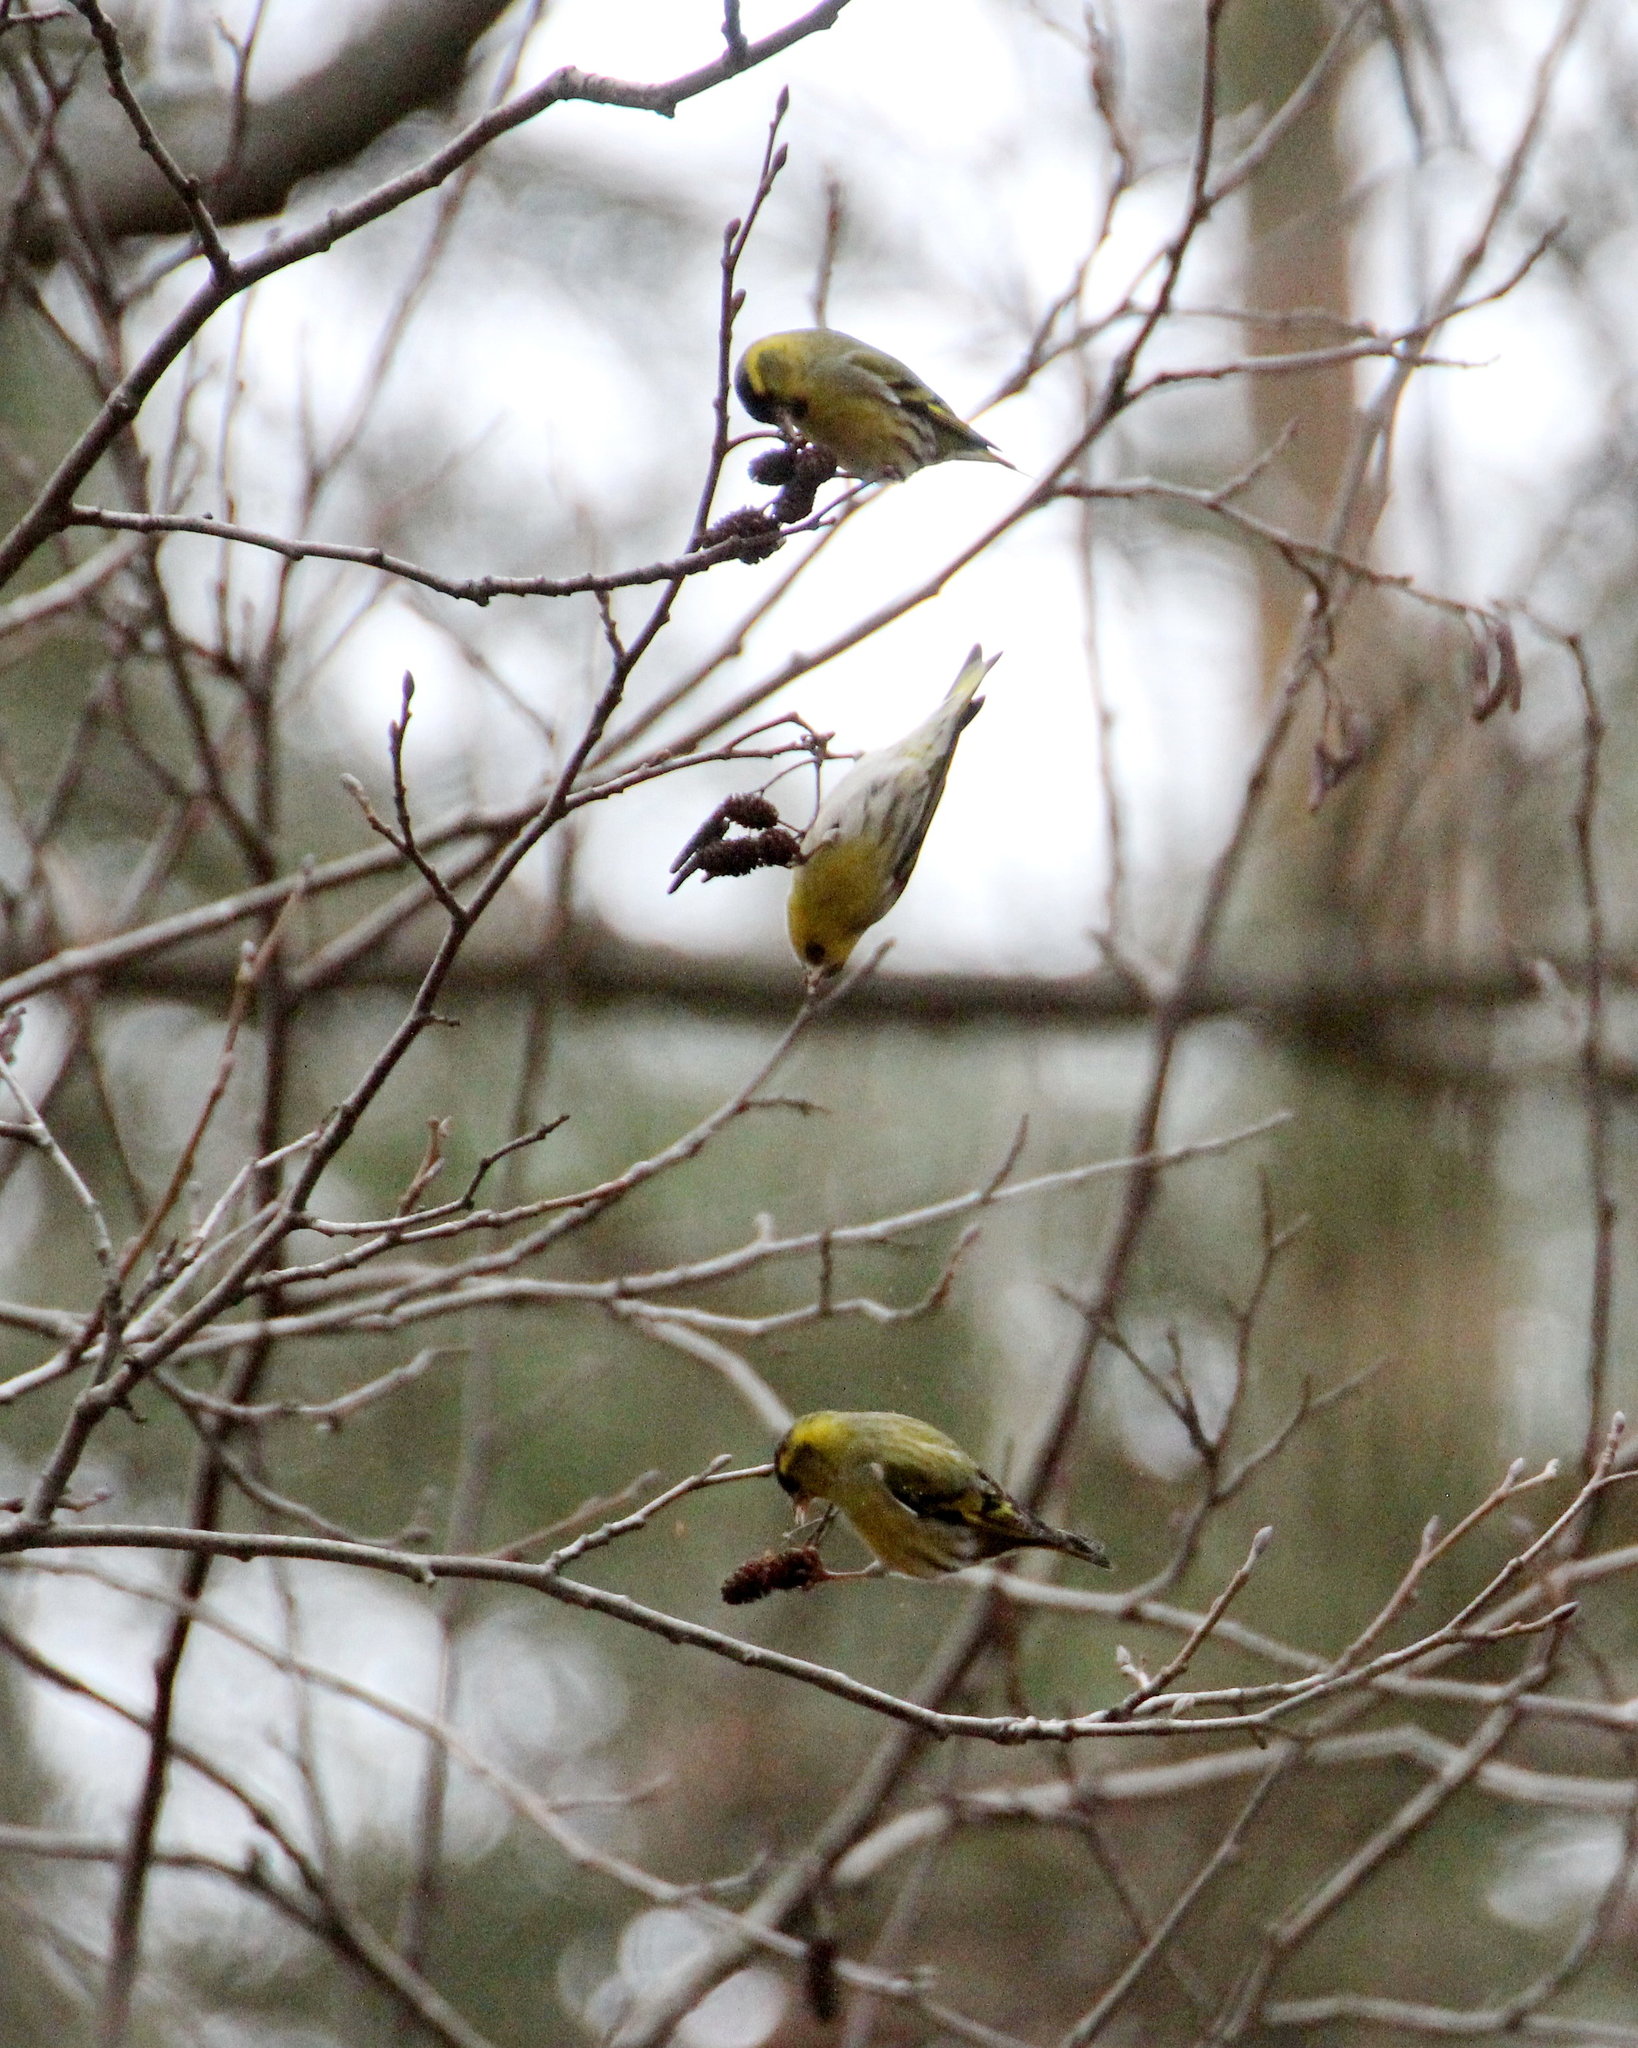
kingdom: Animalia
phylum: Chordata
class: Aves
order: Passeriformes
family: Fringillidae
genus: Spinus
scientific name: Spinus spinus
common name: Eurasian siskin
